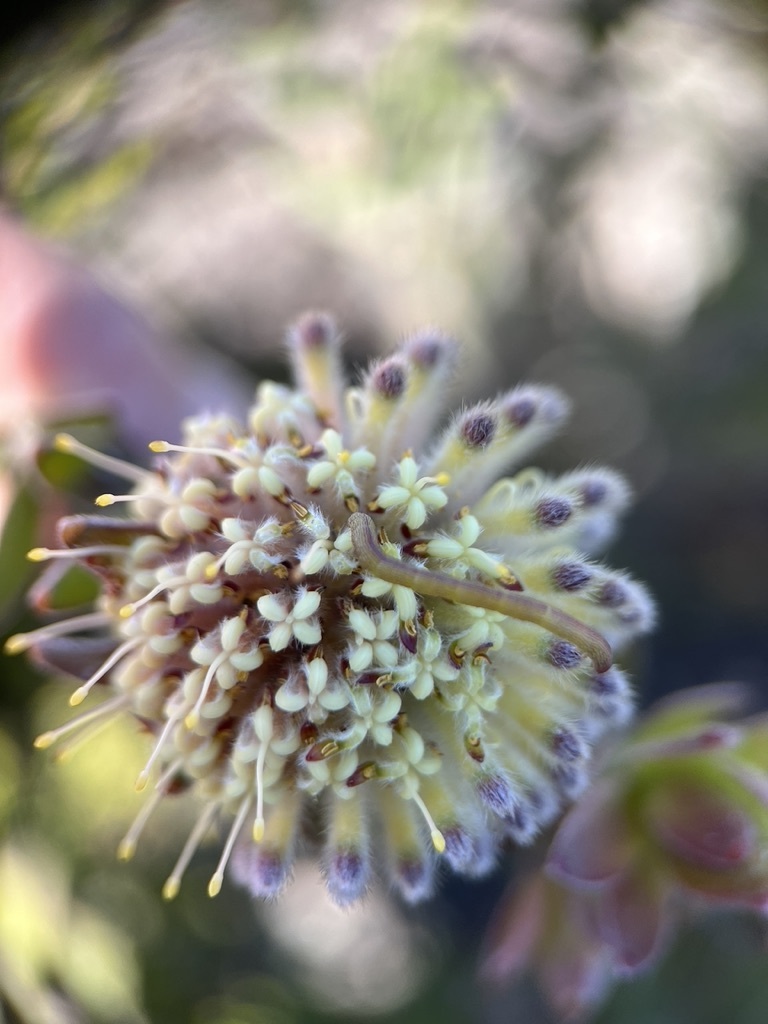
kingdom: Plantae
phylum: Tracheophyta
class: Magnoliopsida
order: Proteales
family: Proteaceae
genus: Leucospermum
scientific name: Leucospermum
